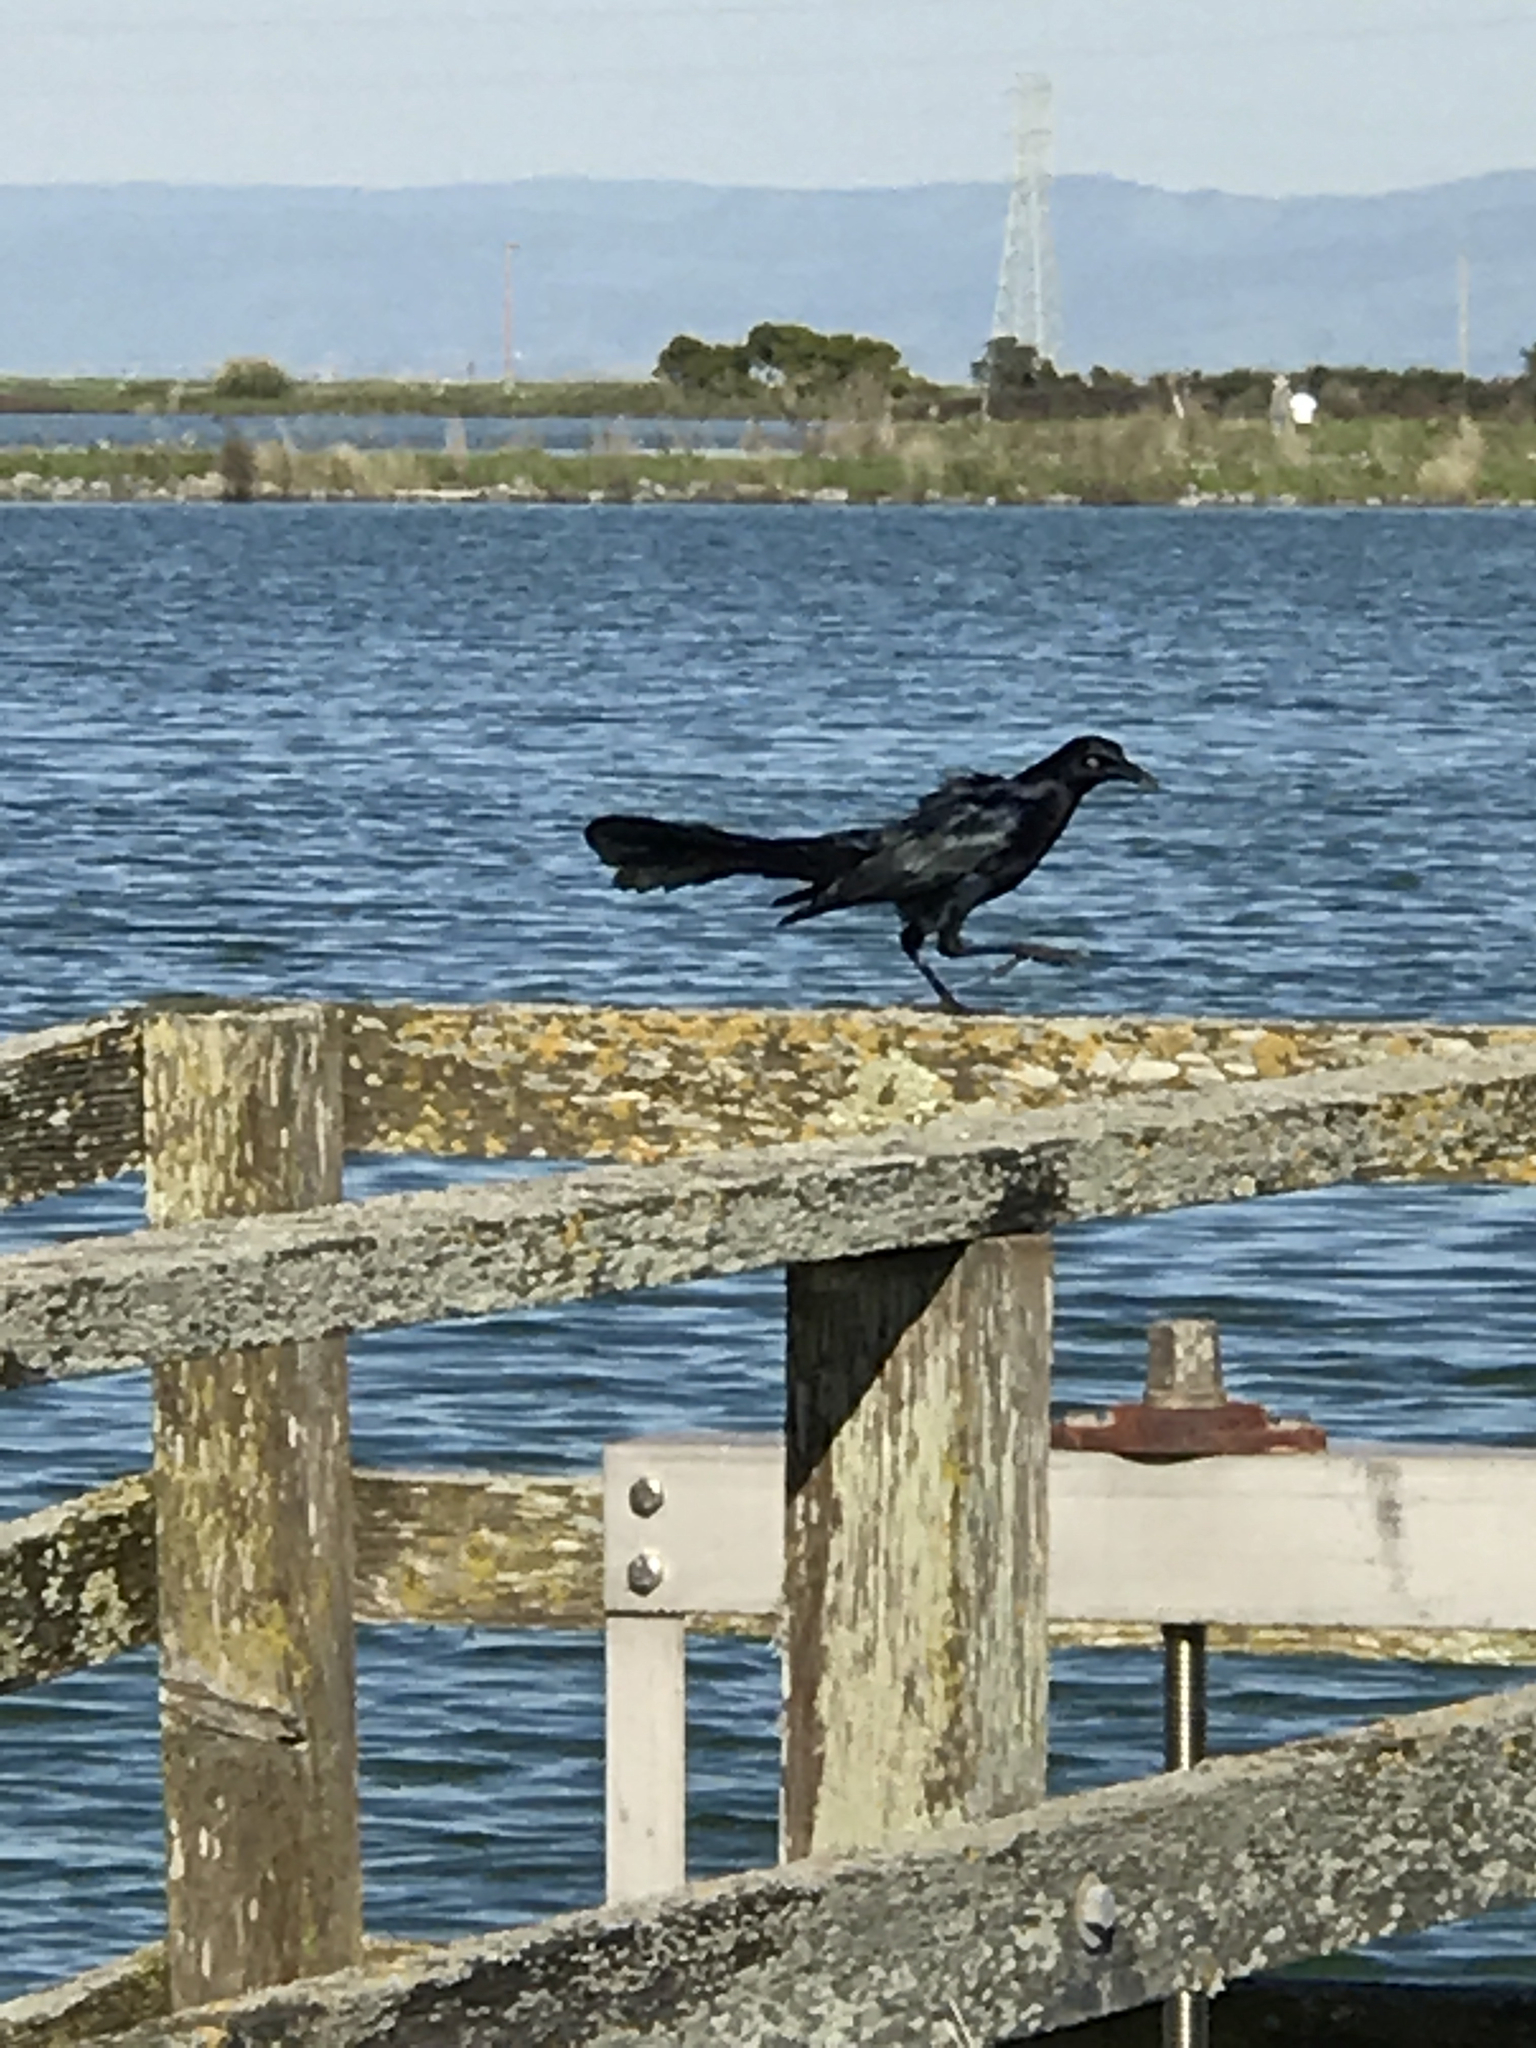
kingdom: Animalia
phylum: Chordata
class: Aves
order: Passeriformes
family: Icteridae
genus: Quiscalus
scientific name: Quiscalus mexicanus
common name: Great-tailed grackle
